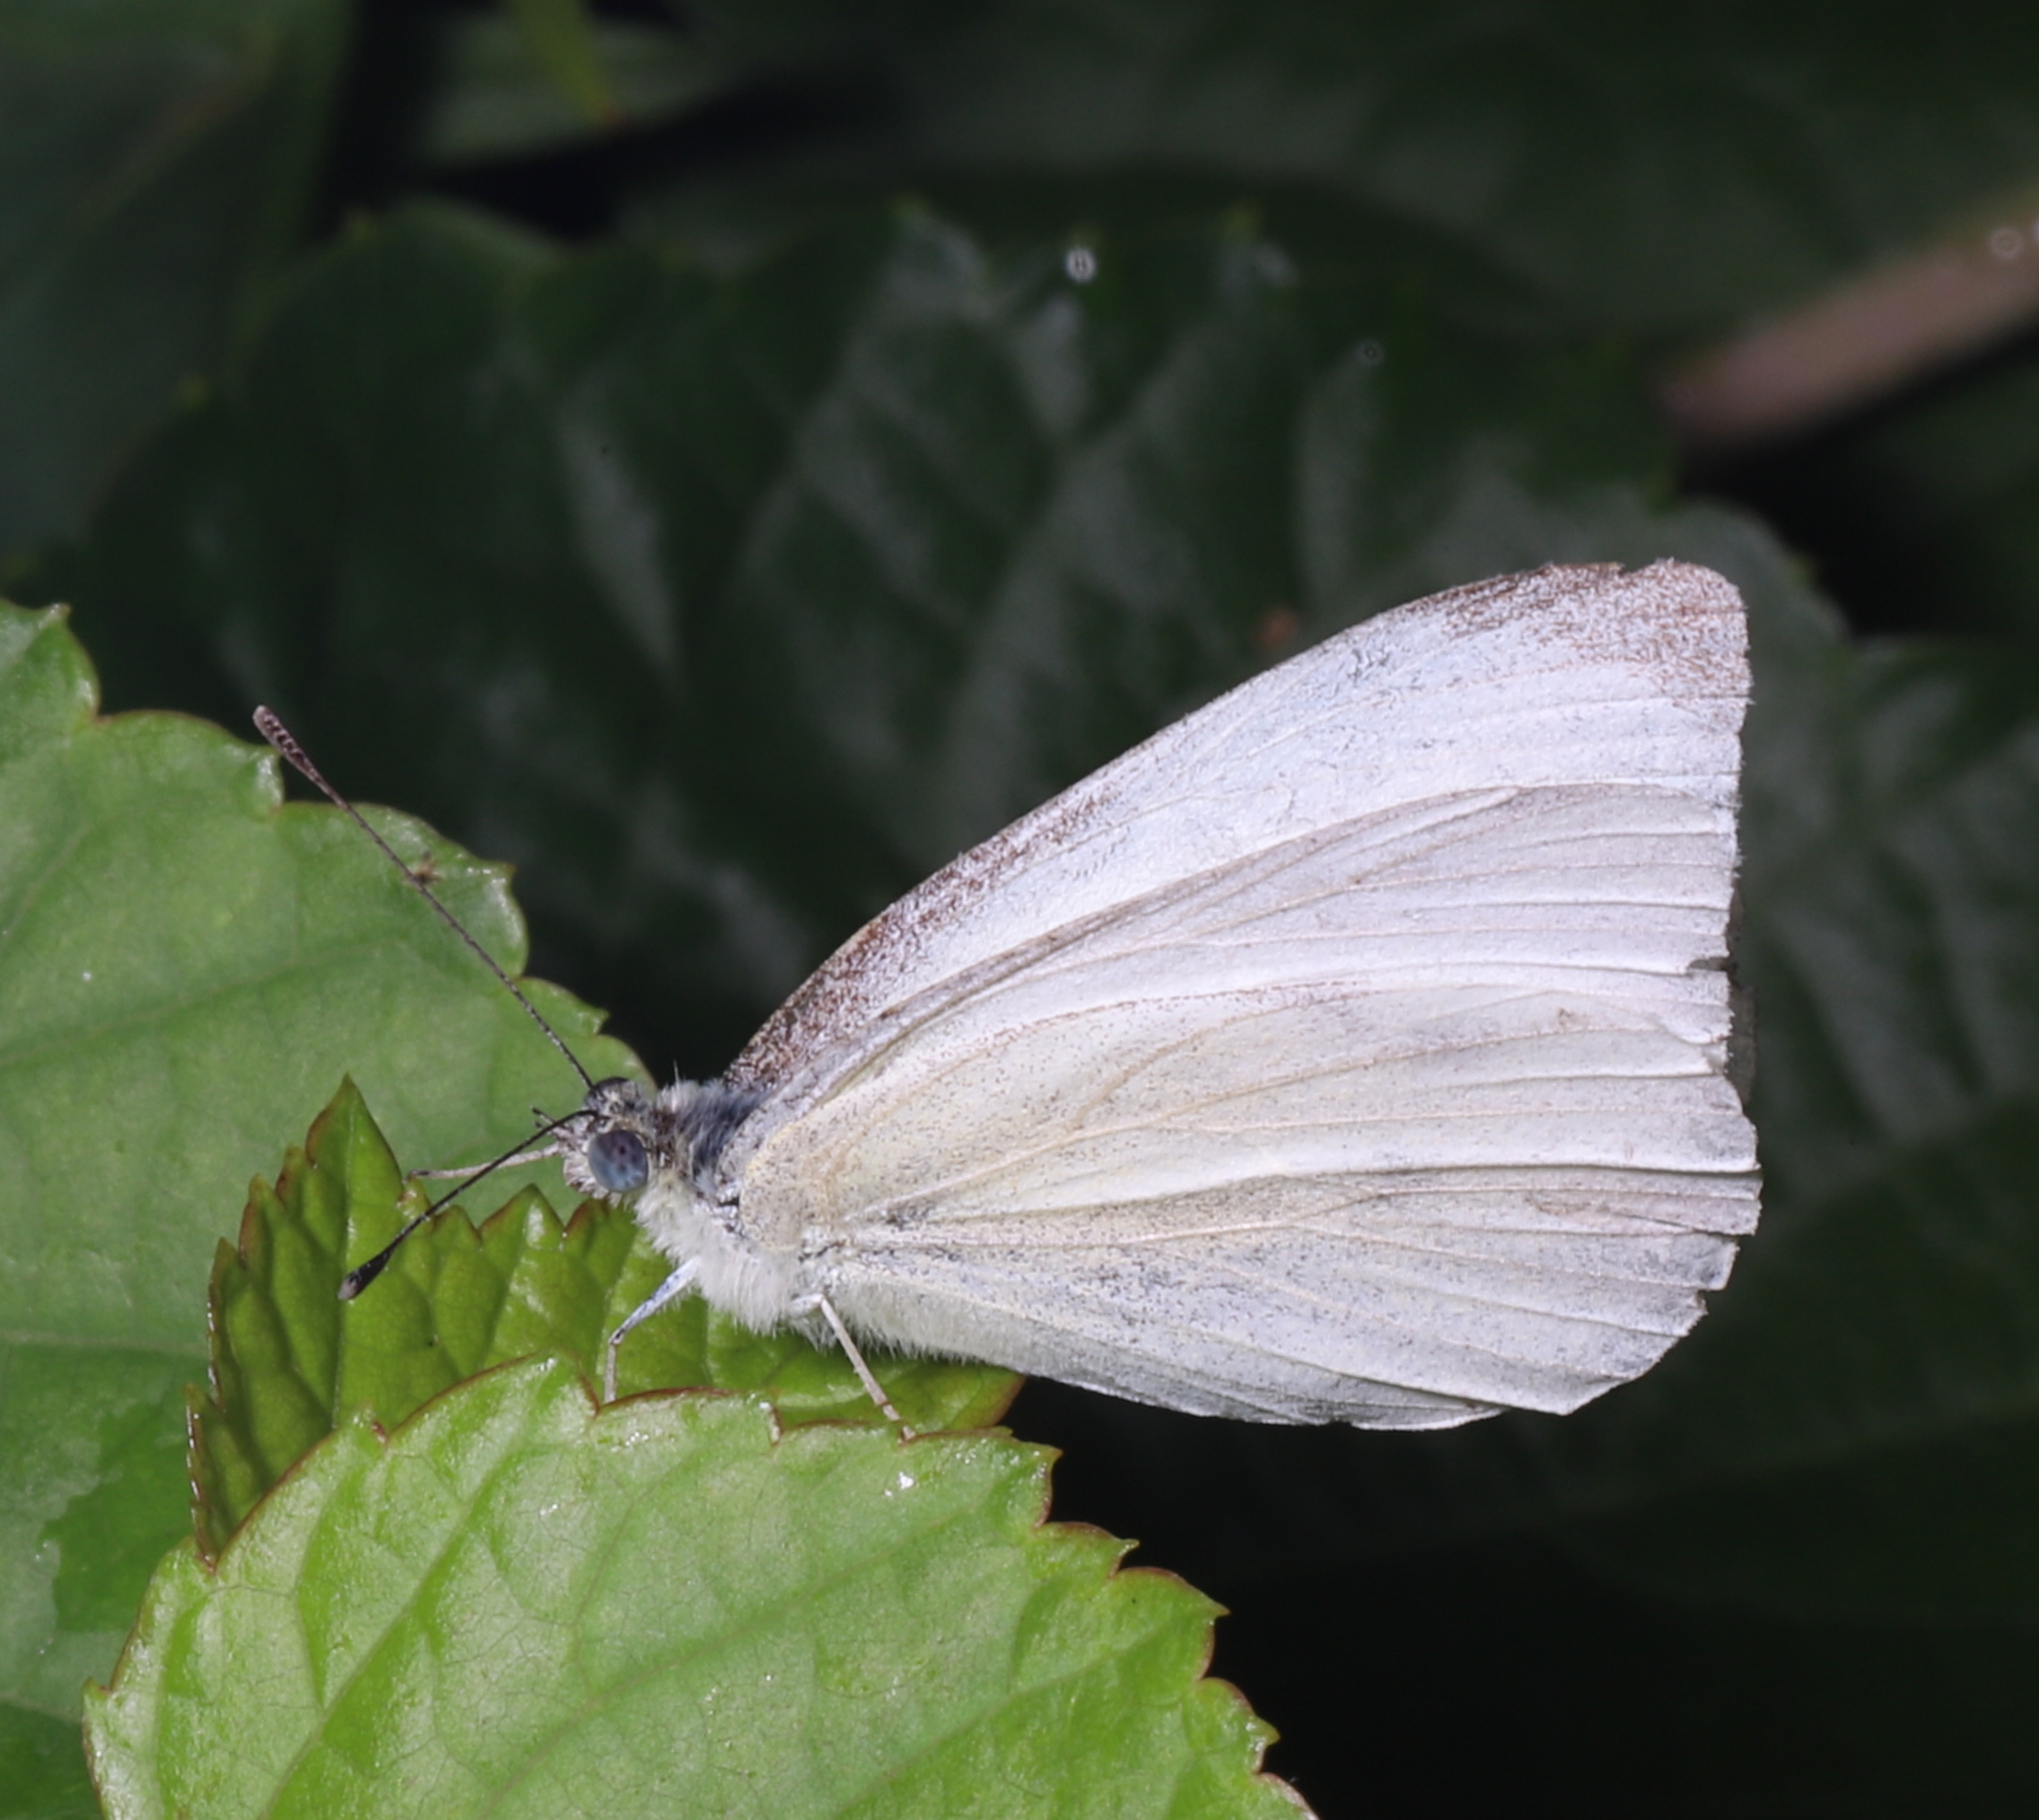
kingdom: Animalia
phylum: Arthropoda
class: Insecta
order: Lepidoptera
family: Pieridae
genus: Pieris
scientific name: Pieris rapae
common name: Small white
